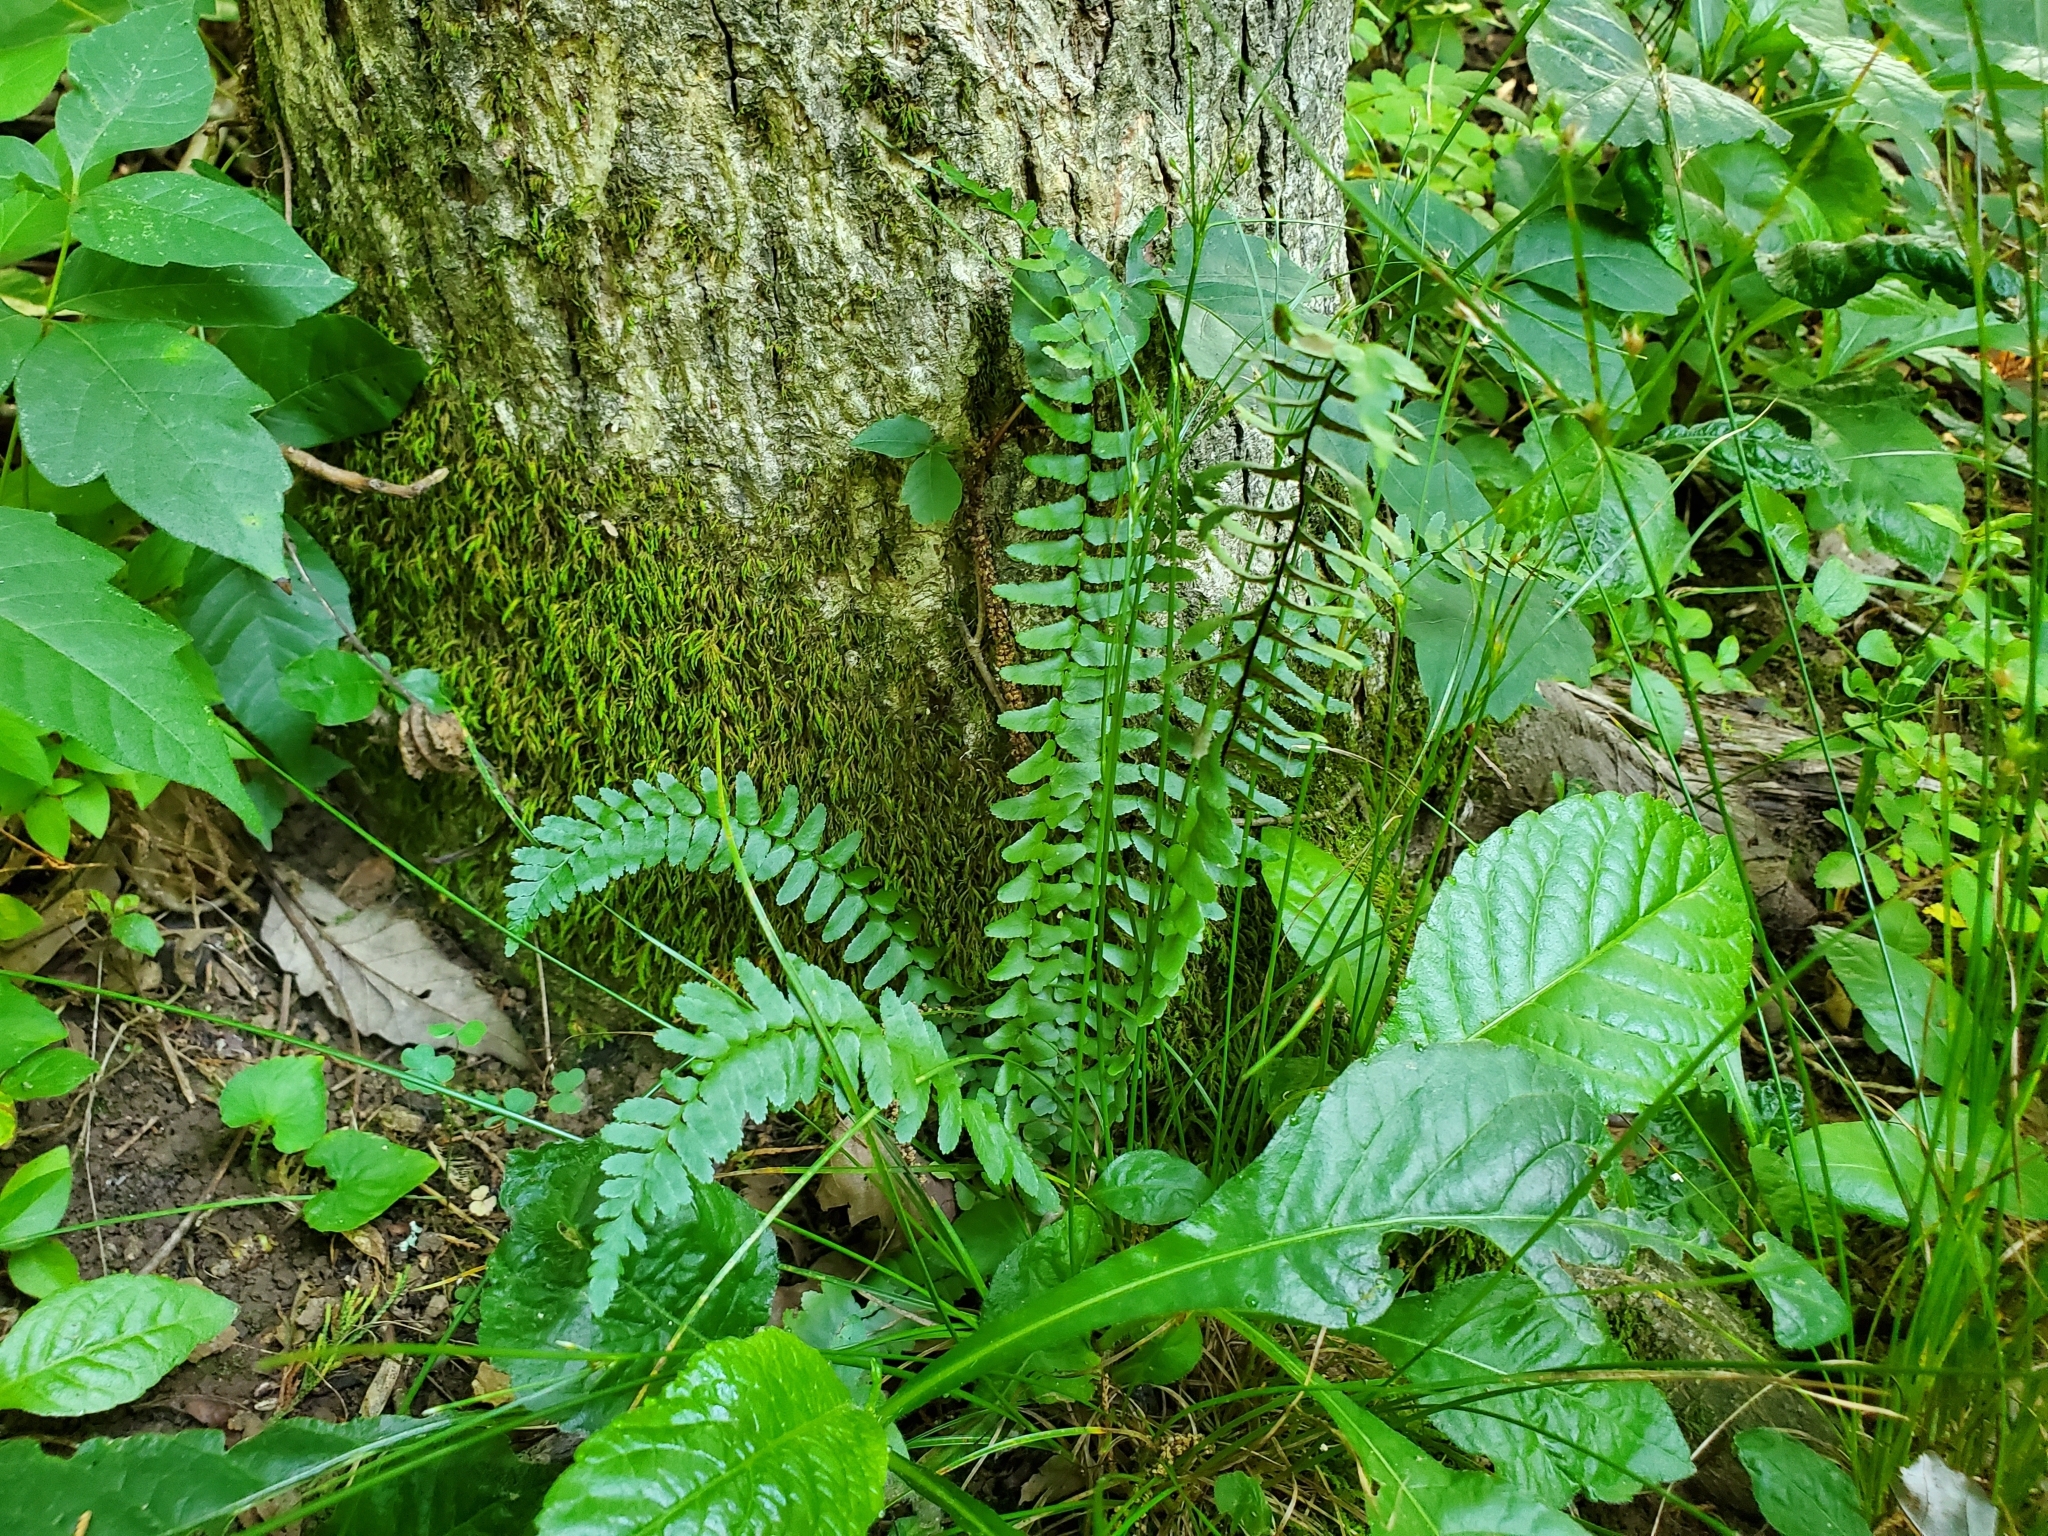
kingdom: Plantae
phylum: Tracheophyta
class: Polypodiopsida
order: Polypodiales
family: Aspleniaceae
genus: Asplenium
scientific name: Asplenium platyneuron
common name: Ebony spleenwort
